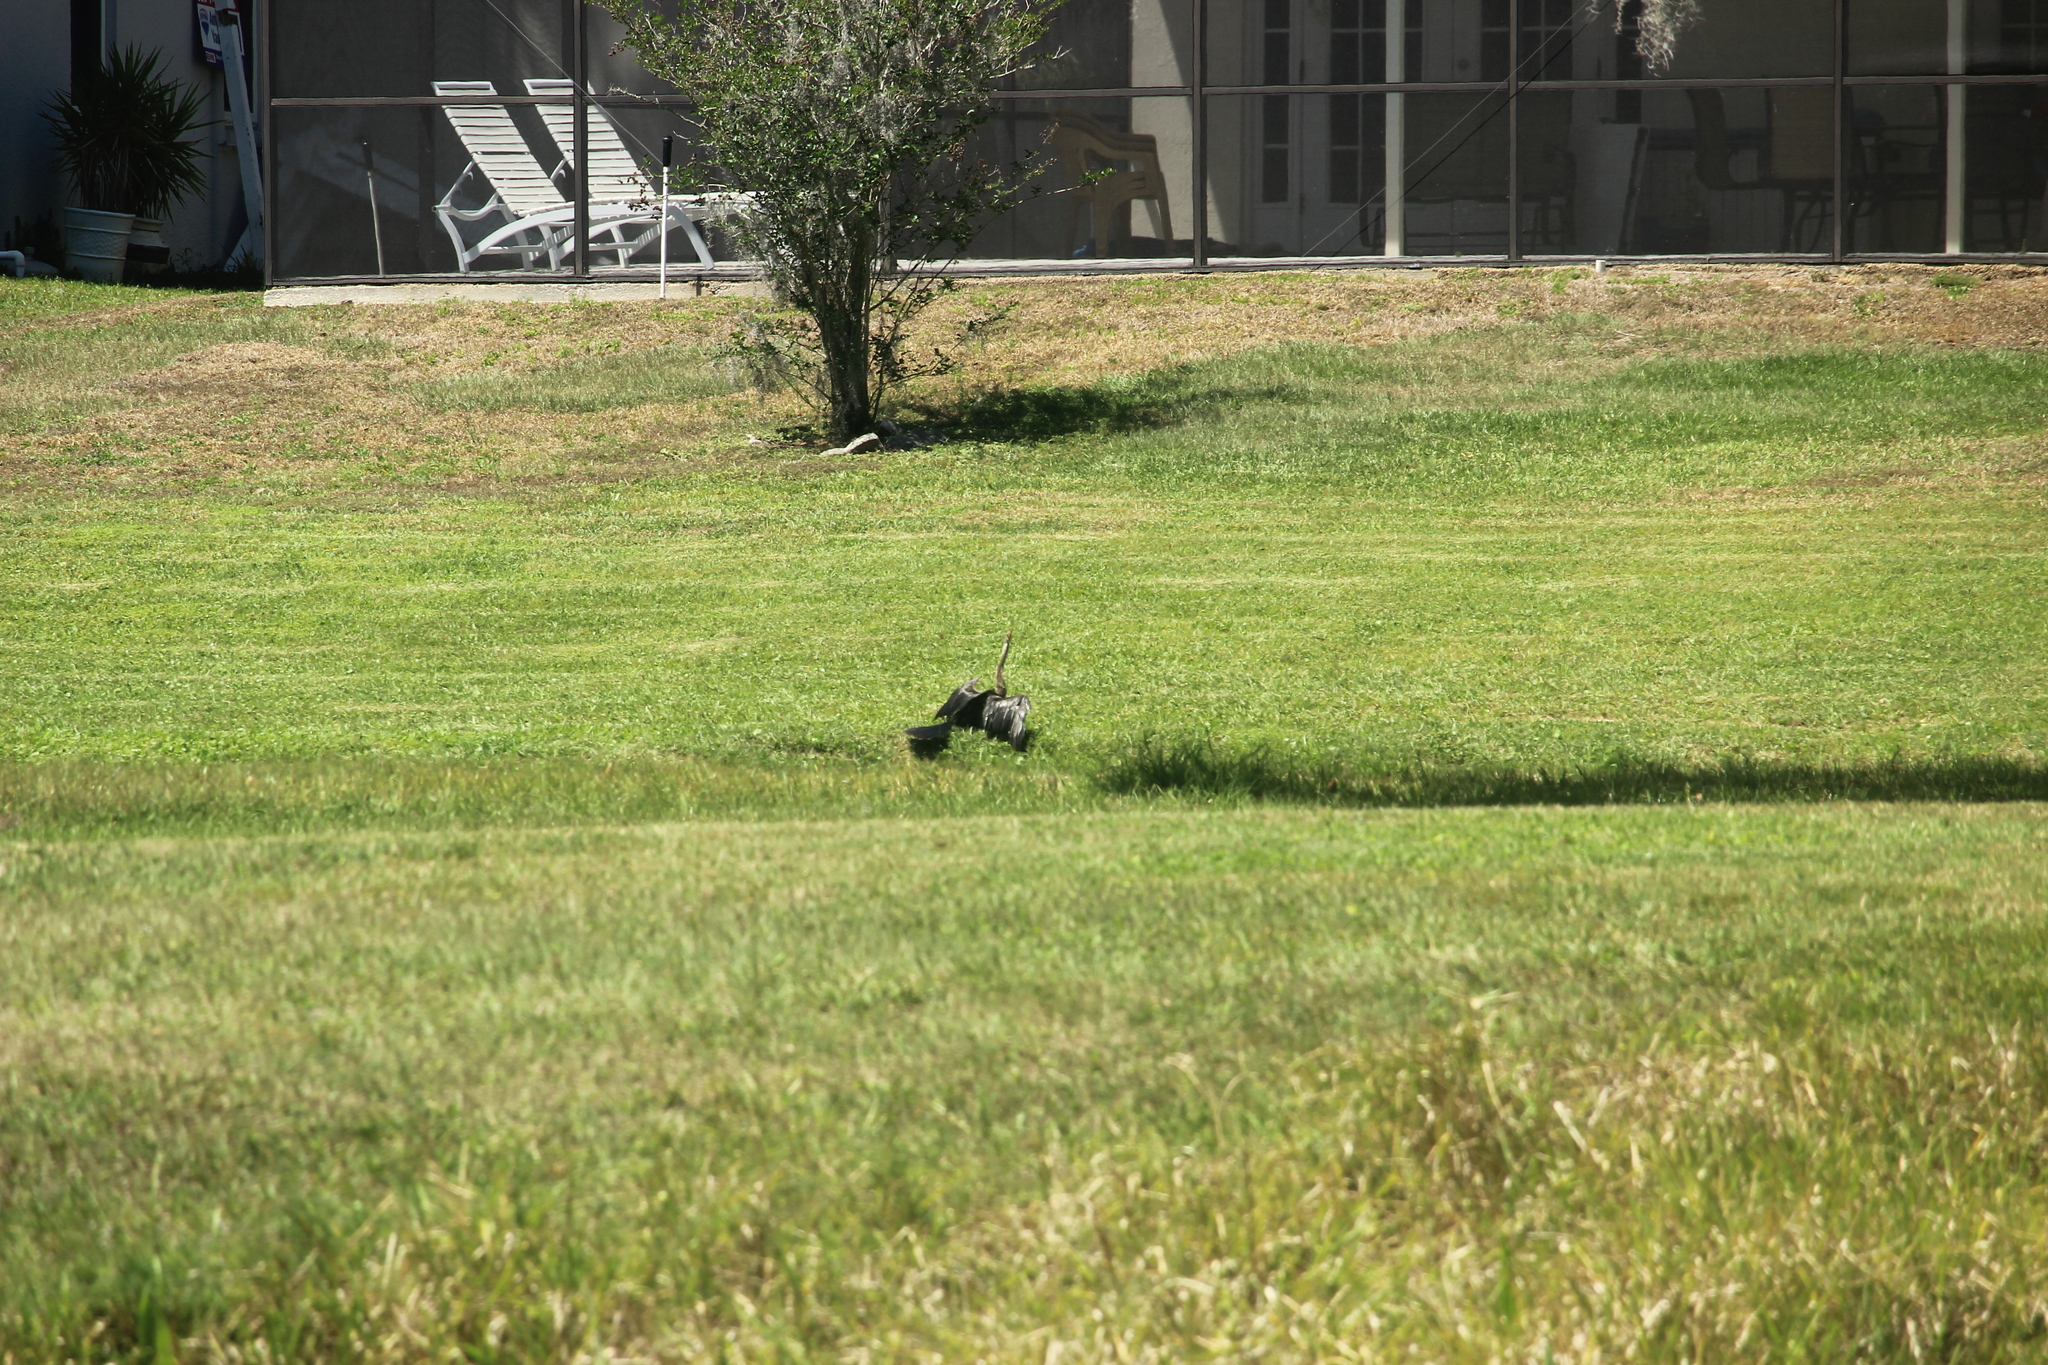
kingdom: Animalia
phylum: Chordata
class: Aves
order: Suliformes
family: Anhingidae
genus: Anhinga
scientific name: Anhinga anhinga
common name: Anhinga
